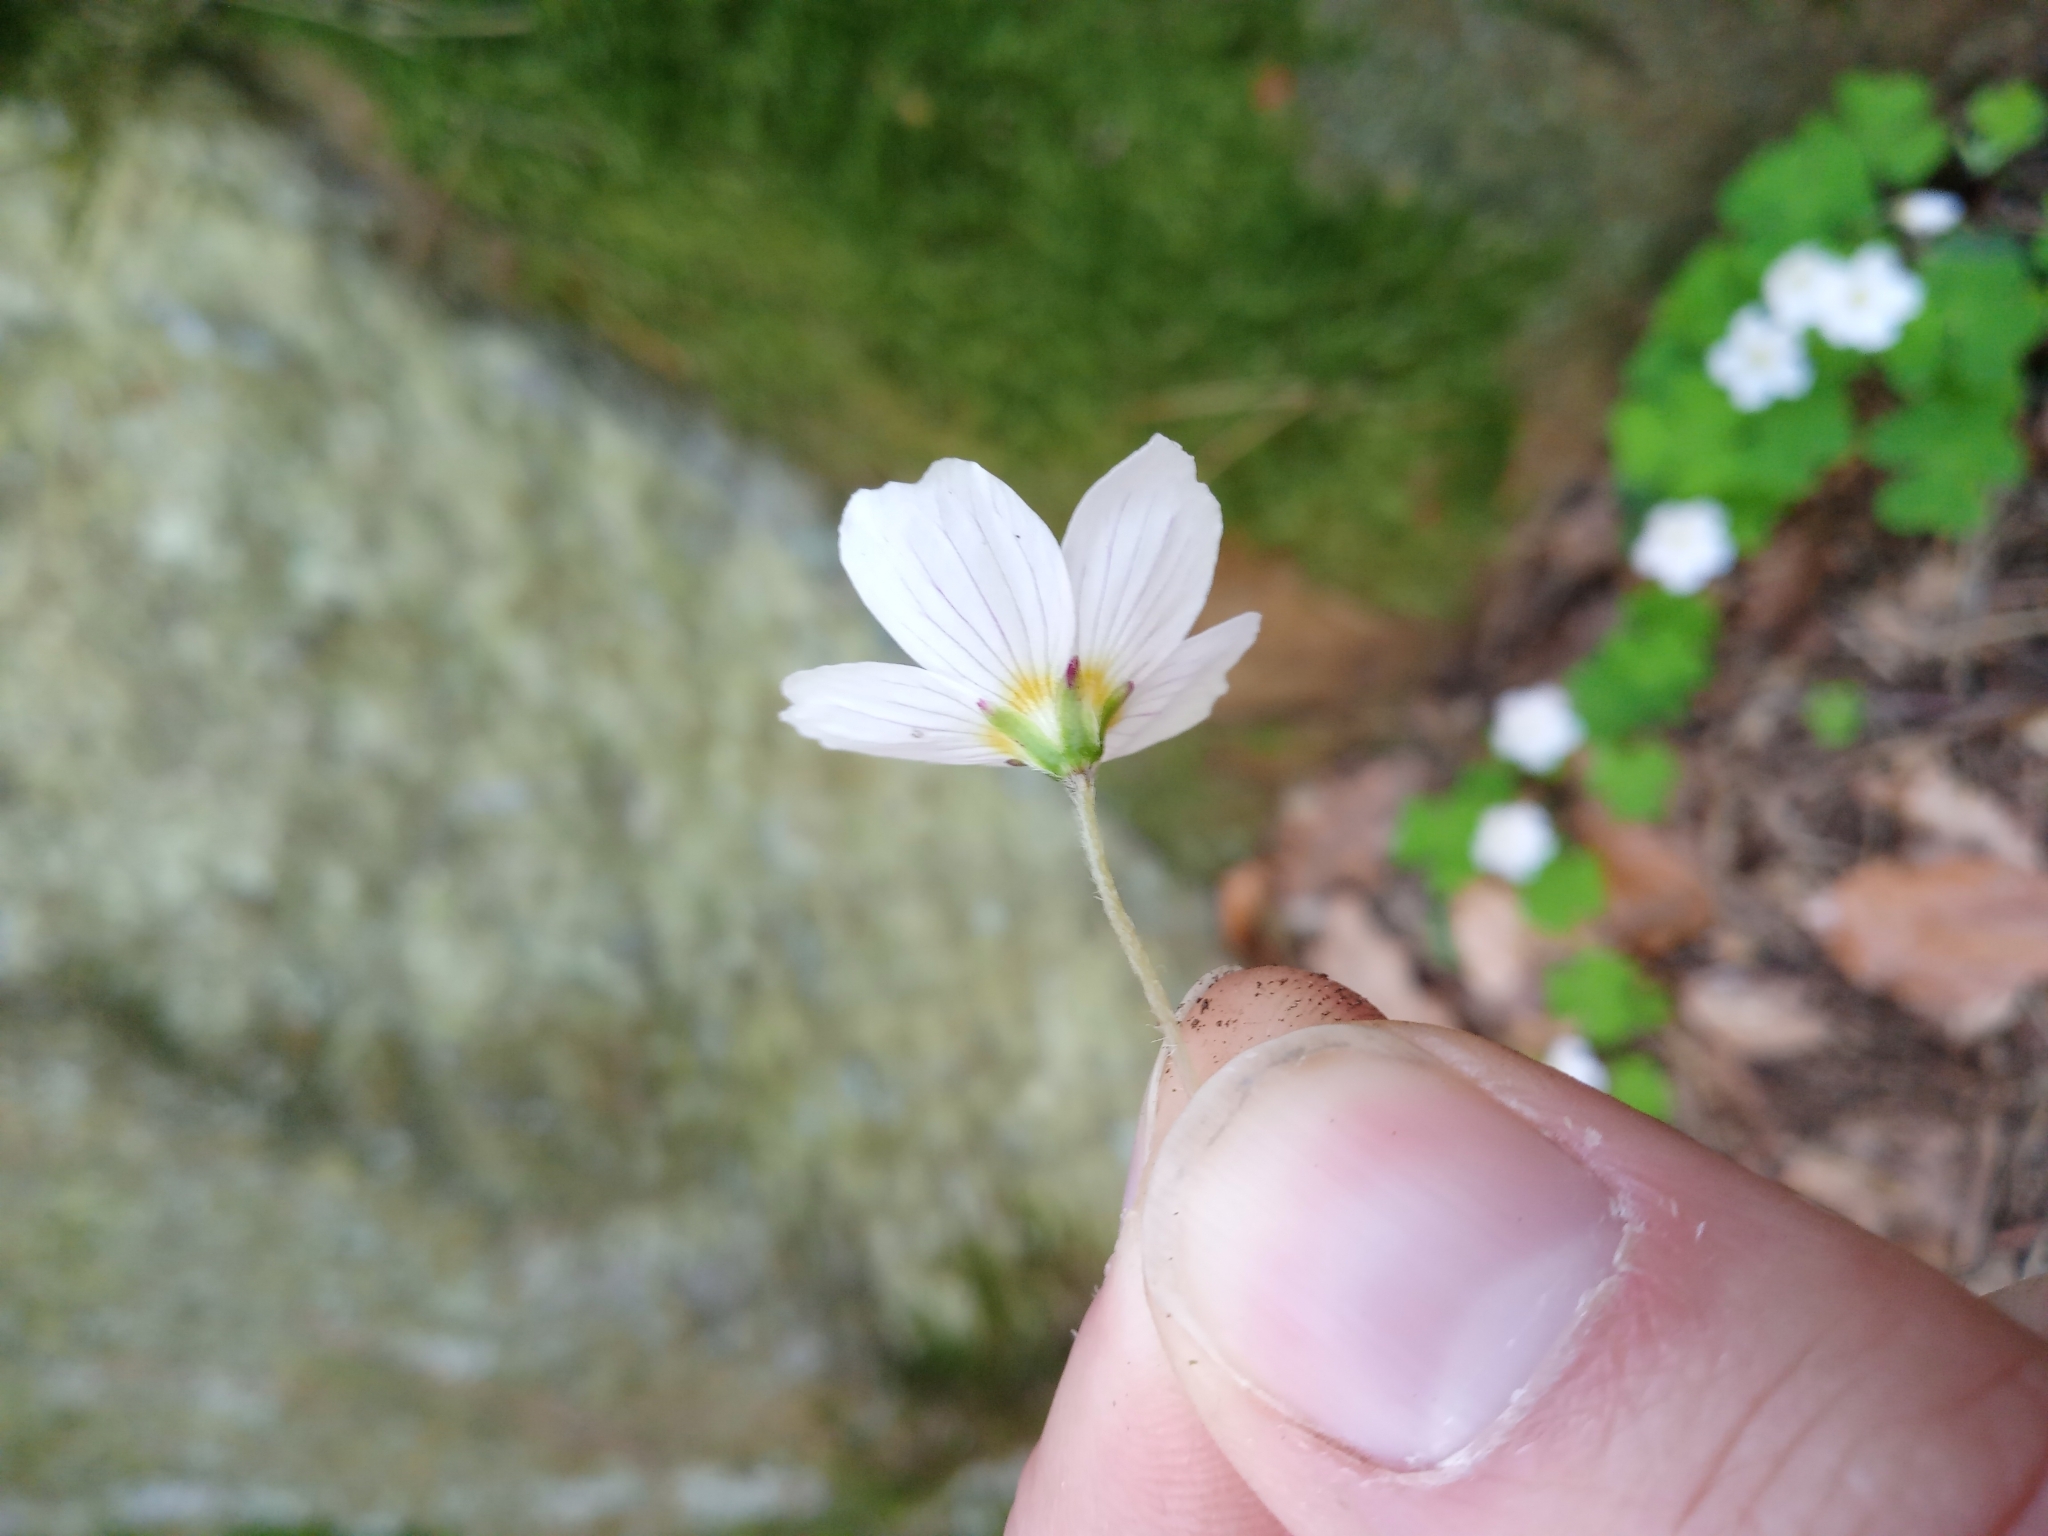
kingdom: Plantae
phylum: Tracheophyta
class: Magnoliopsida
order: Oxalidales
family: Oxalidaceae
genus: Oxalis
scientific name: Oxalis acetosella
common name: Wood-sorrel
